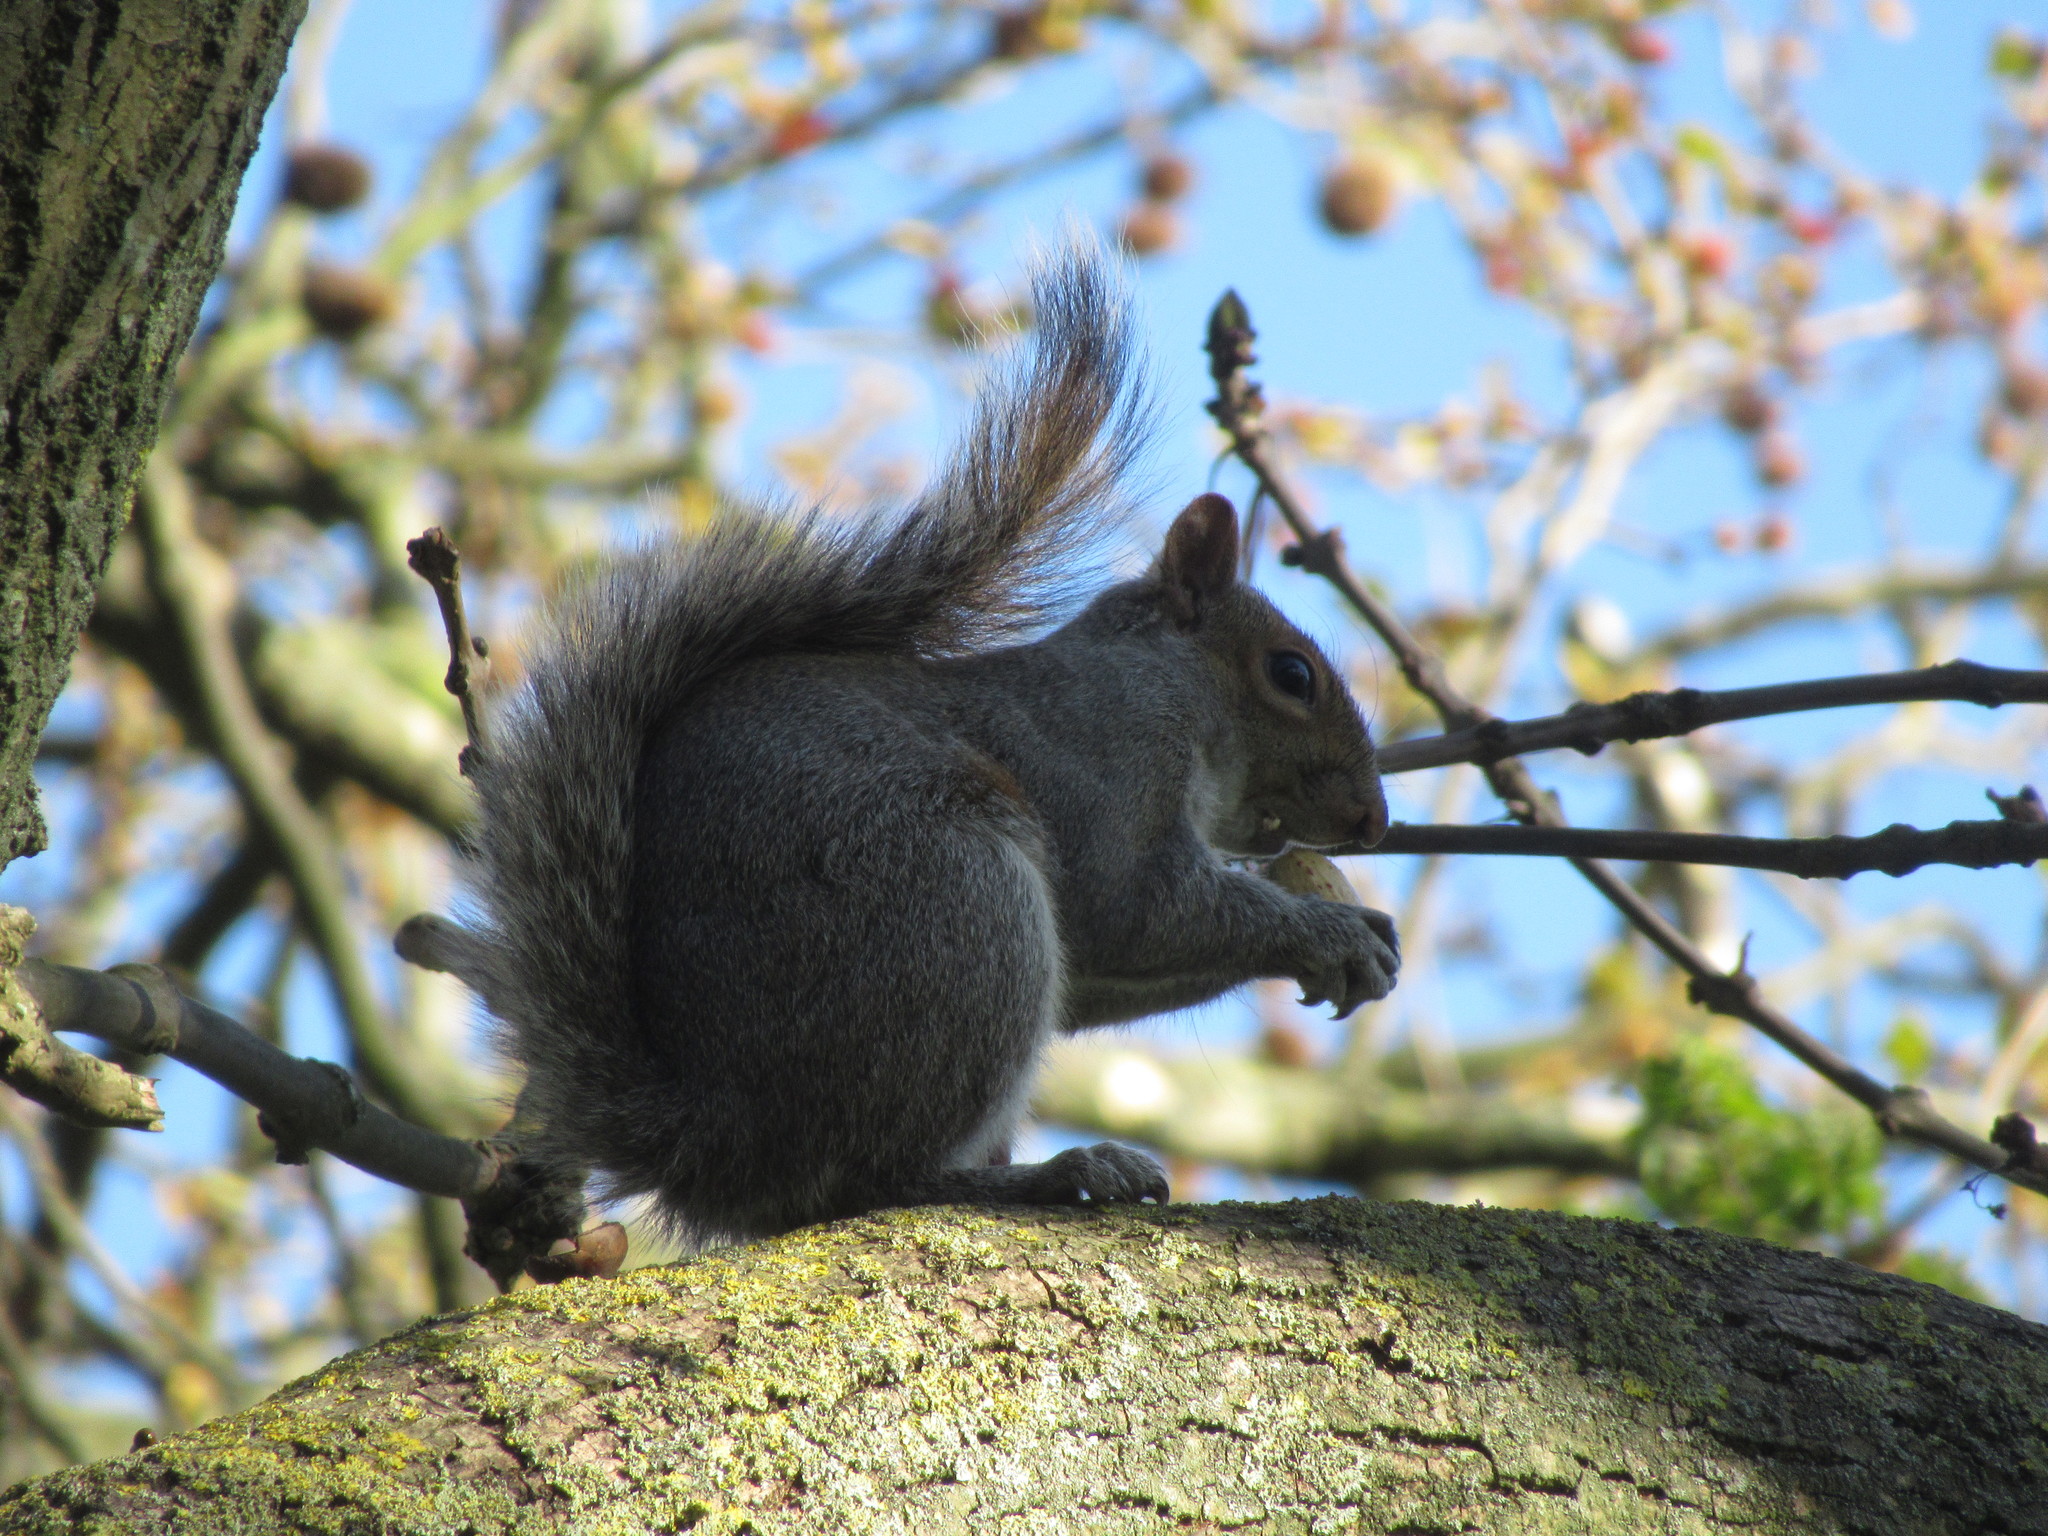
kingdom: Animalia
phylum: Chordata
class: Mammalia
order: Rodentia
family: Sciuridae
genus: Sciurus
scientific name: Sciurus carolinensis
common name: Eastern gray squirrel
